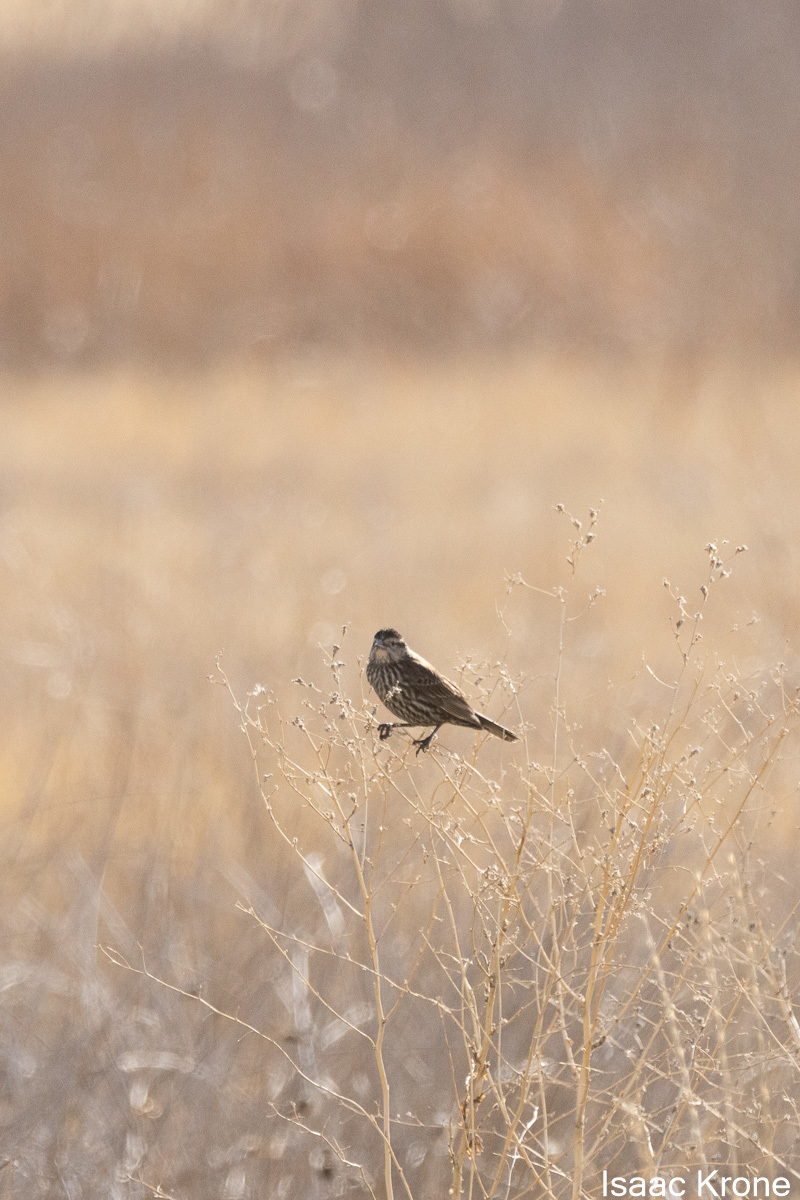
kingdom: Animalia
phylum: Chordata
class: Aves
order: Passeriformes
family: Icteridae
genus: Agelaius
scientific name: Agelaius phoeniceus
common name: Red-winged blackbird
